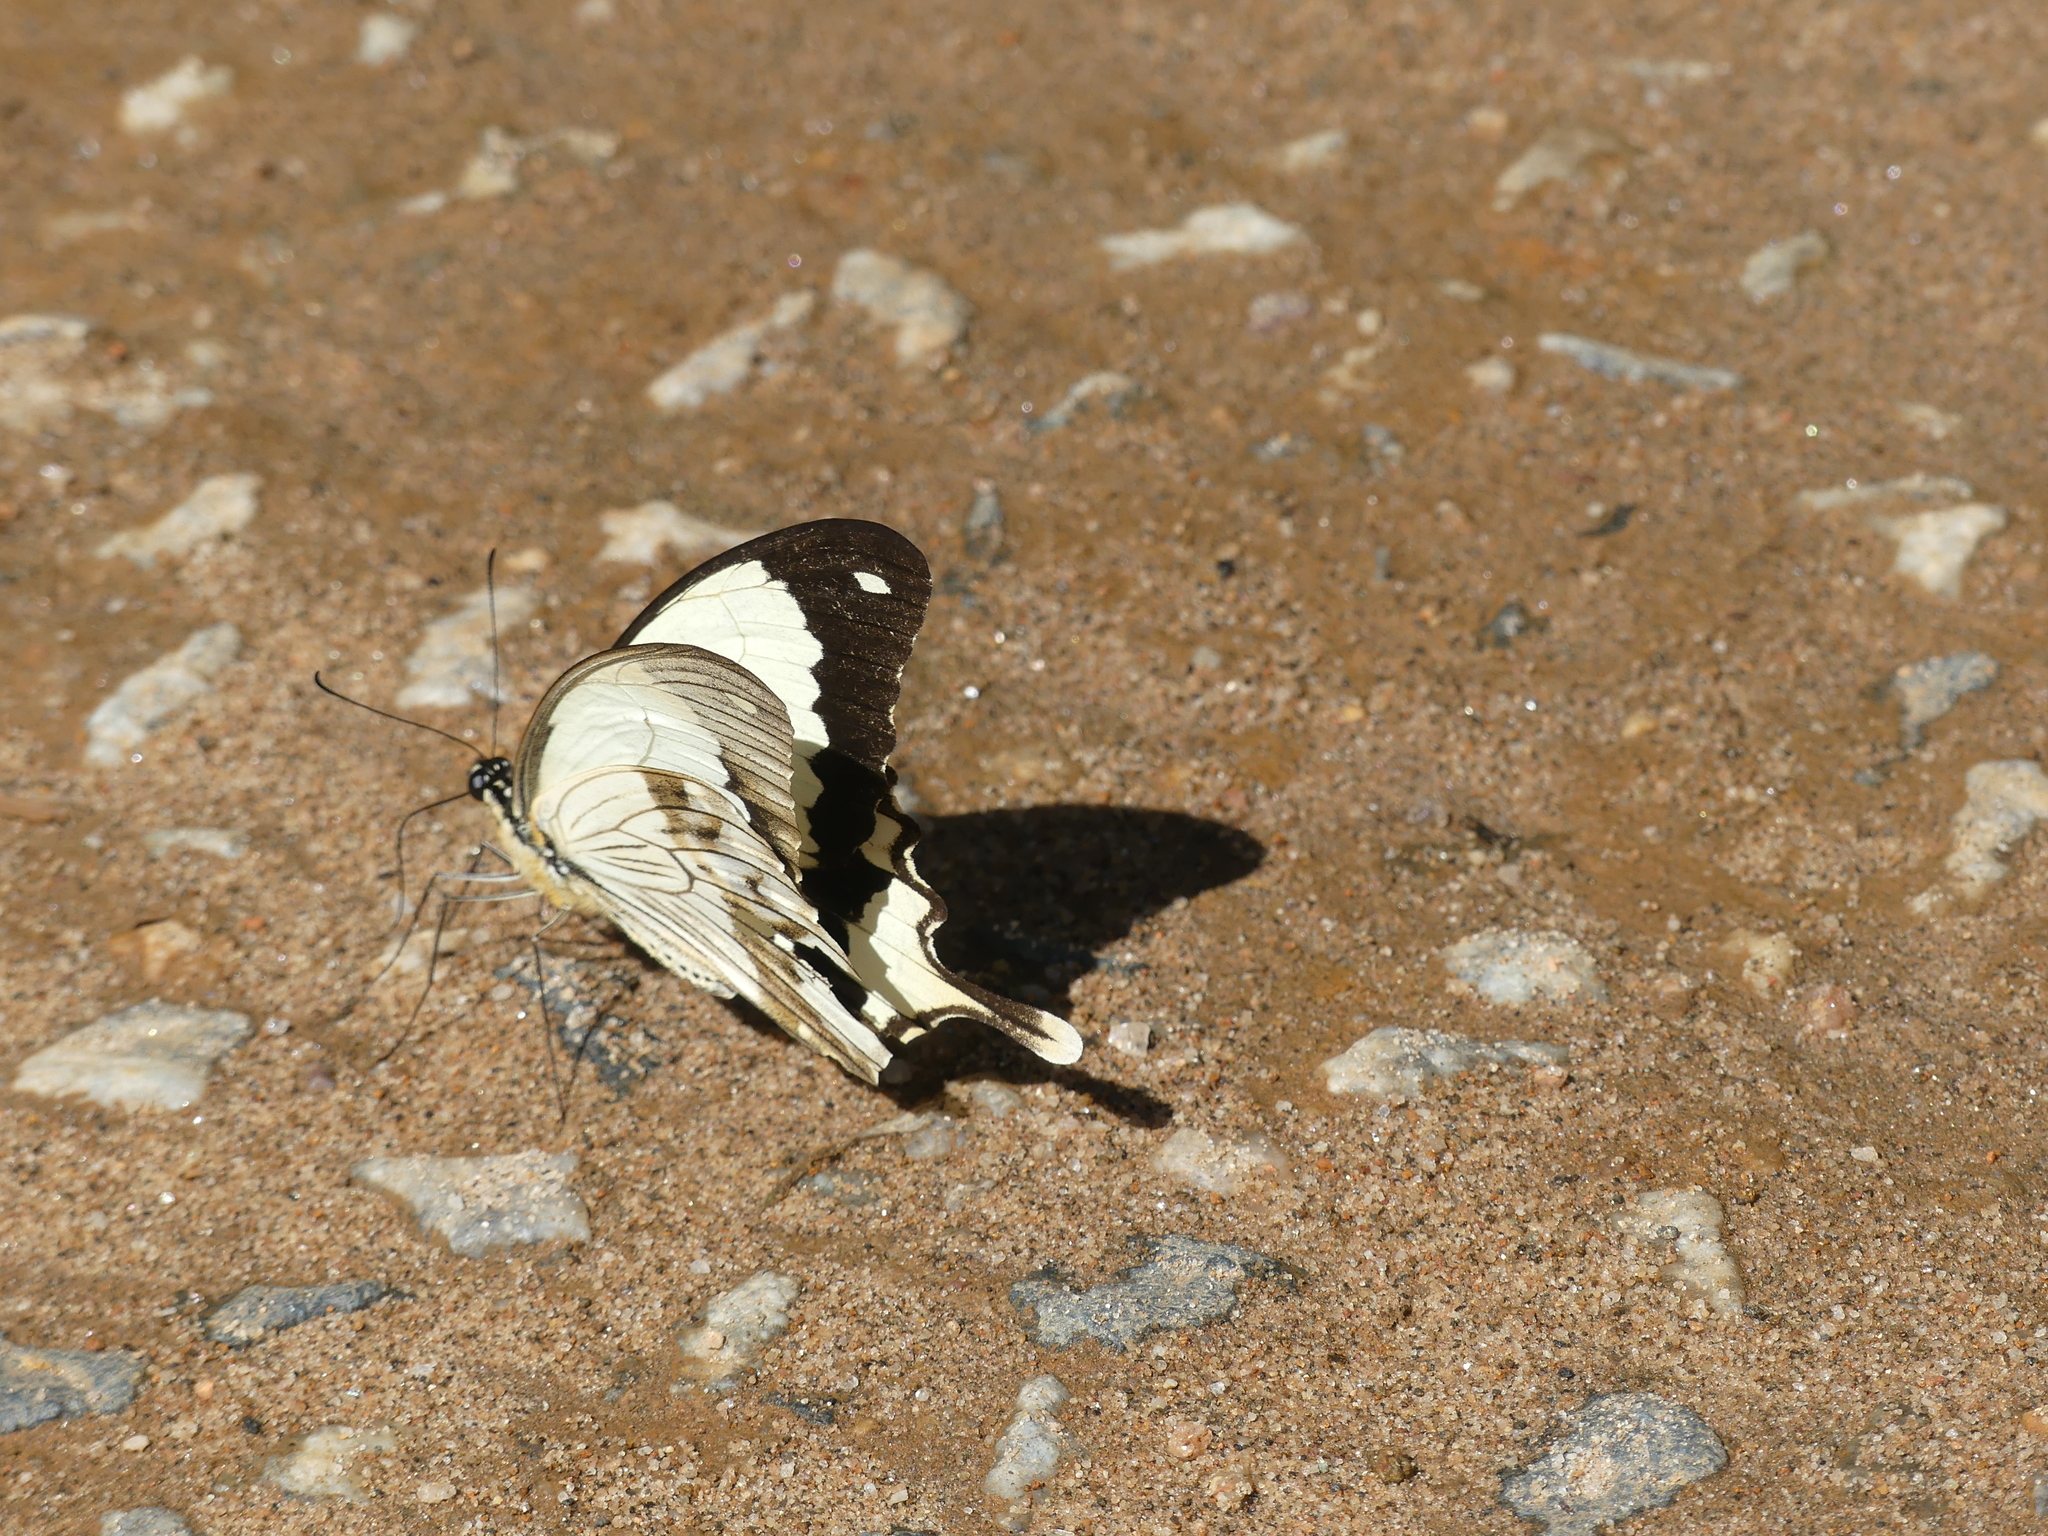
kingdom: Animalia
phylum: Arthropoda
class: Insecta
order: Lepidoptera
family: Papilionidae
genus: Papilio
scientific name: Papilio dardanus
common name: Flying handkerchief
